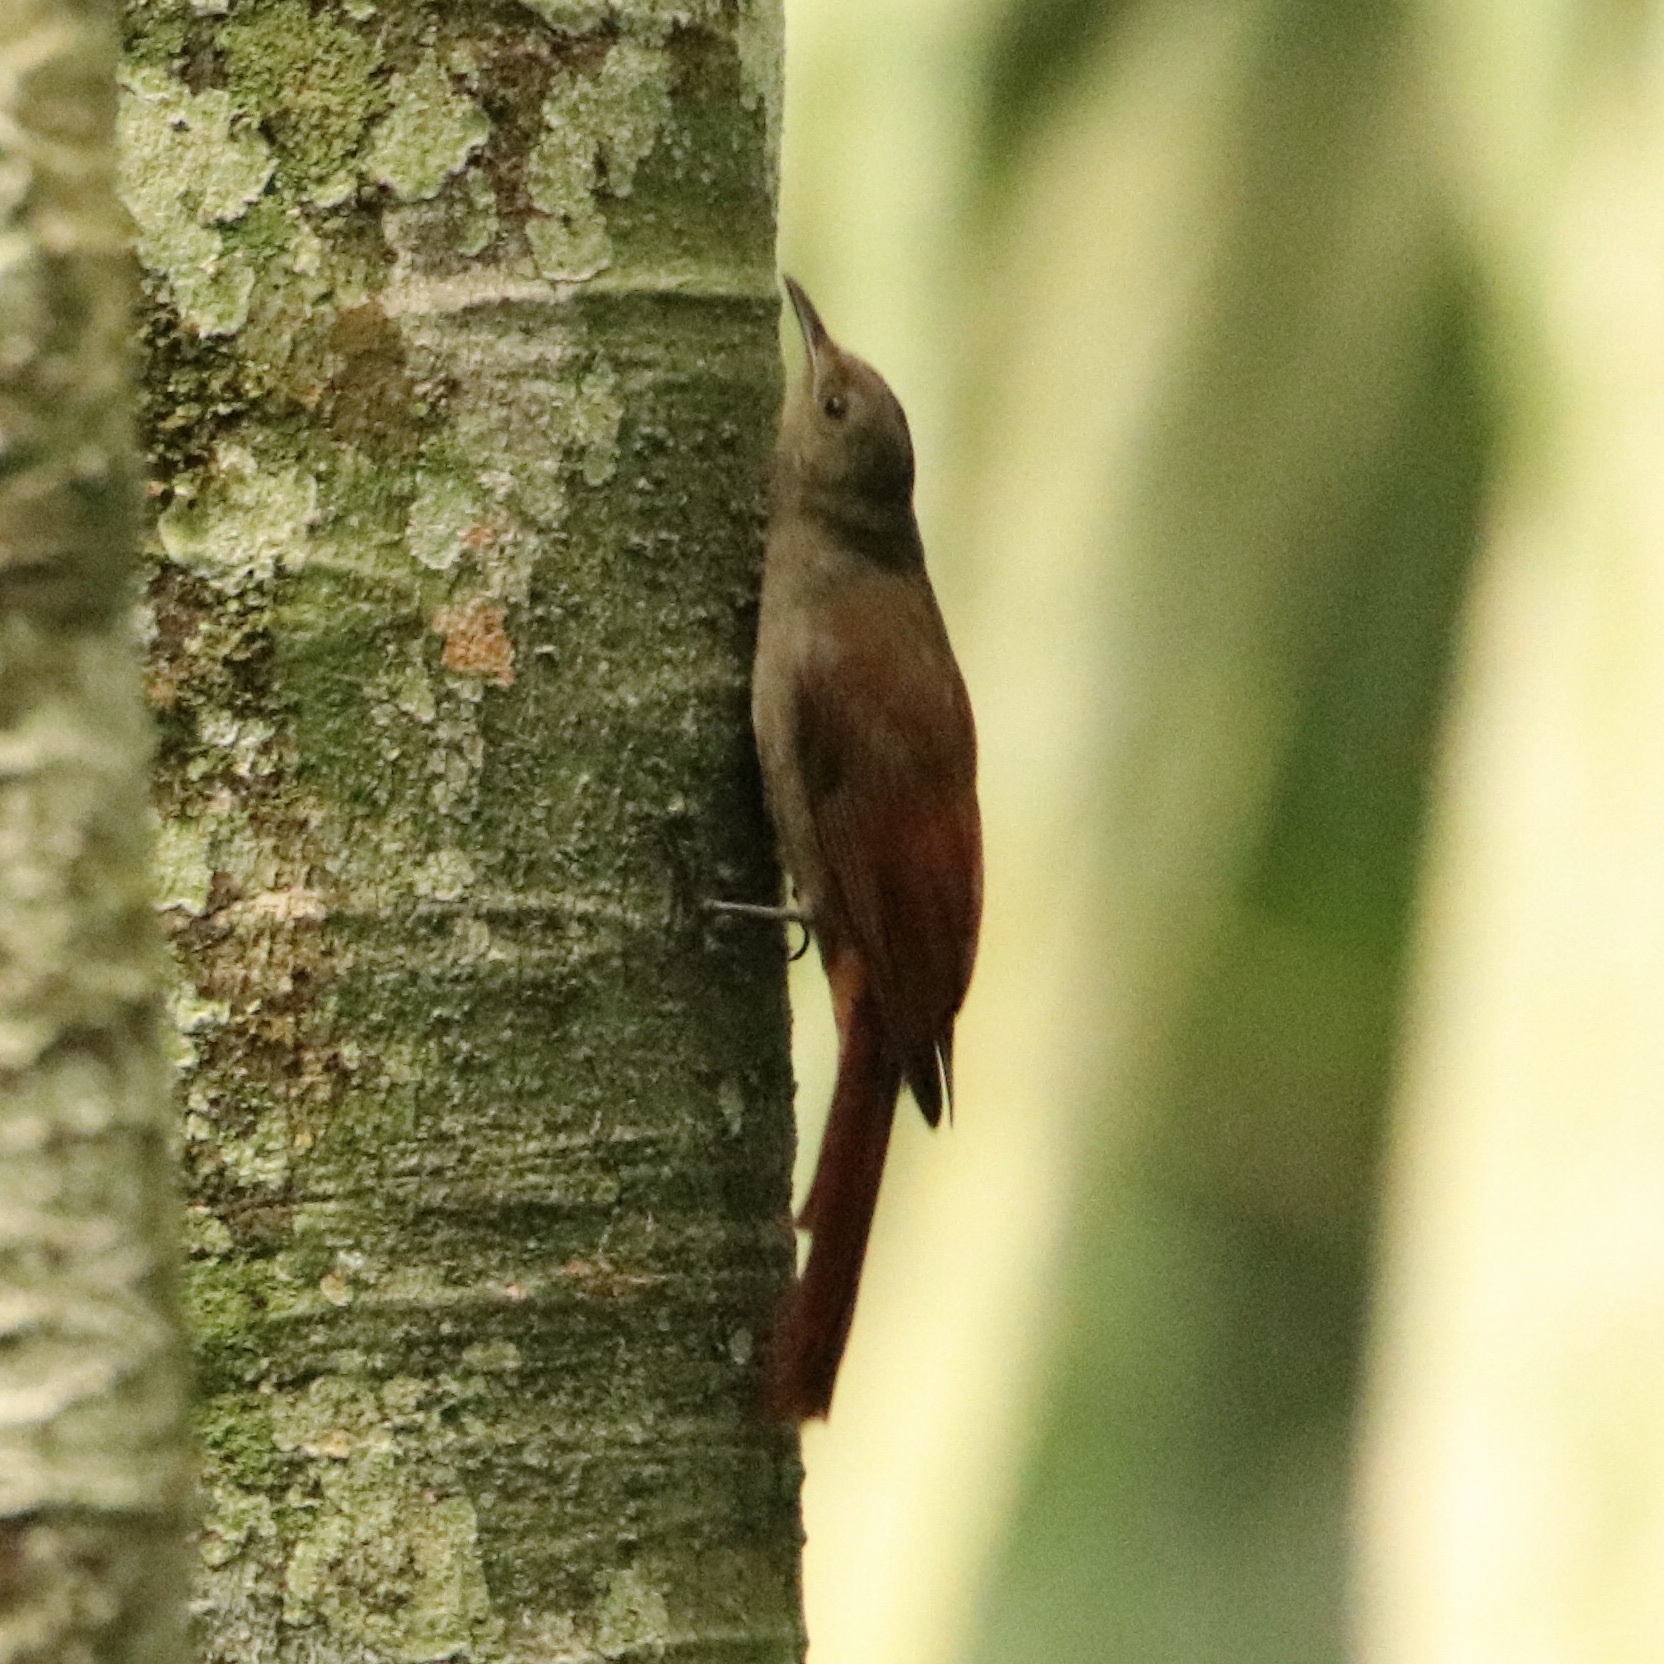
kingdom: Animalia
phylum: Chordata
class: Aves
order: Passeriformes
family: Furnariidae
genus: Sittasomus
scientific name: Sittasomus griseicapillus
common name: Olivaceous woodcreeper
